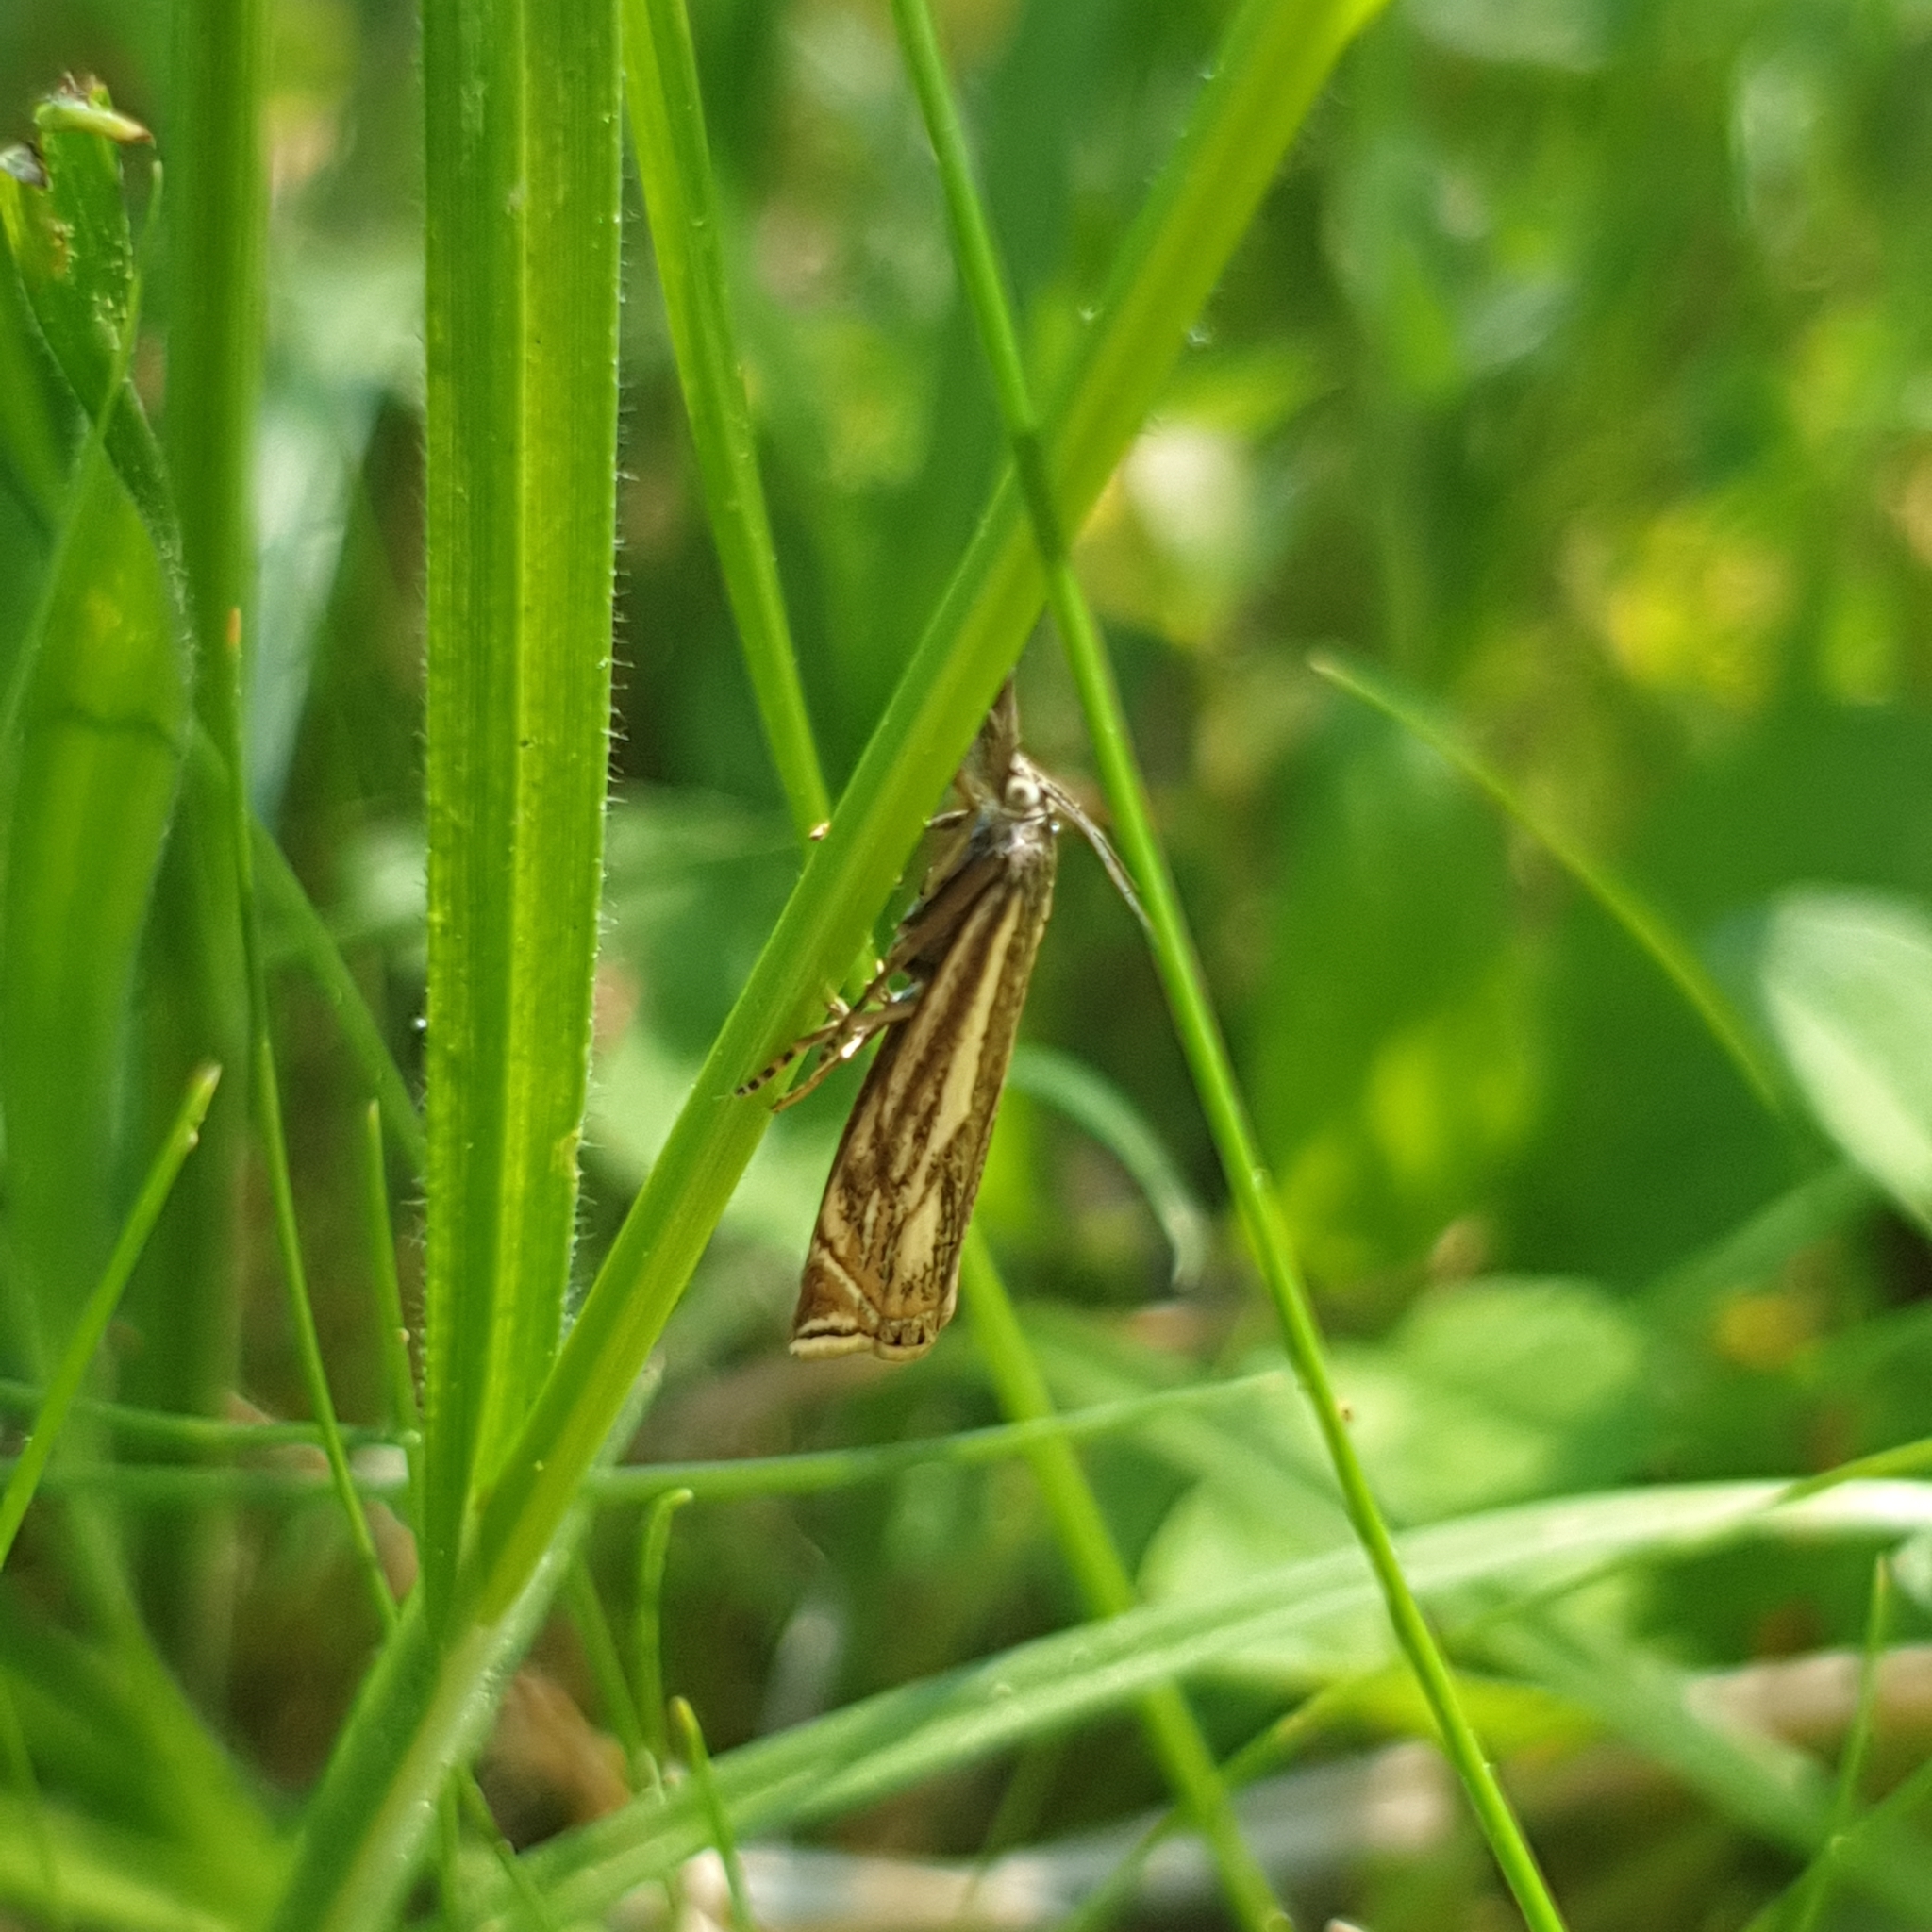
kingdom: Animalia
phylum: Arthropoda
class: Insecta
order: Lepidoptera
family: Crambidae
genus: Crambus
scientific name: Crambus nemorella
